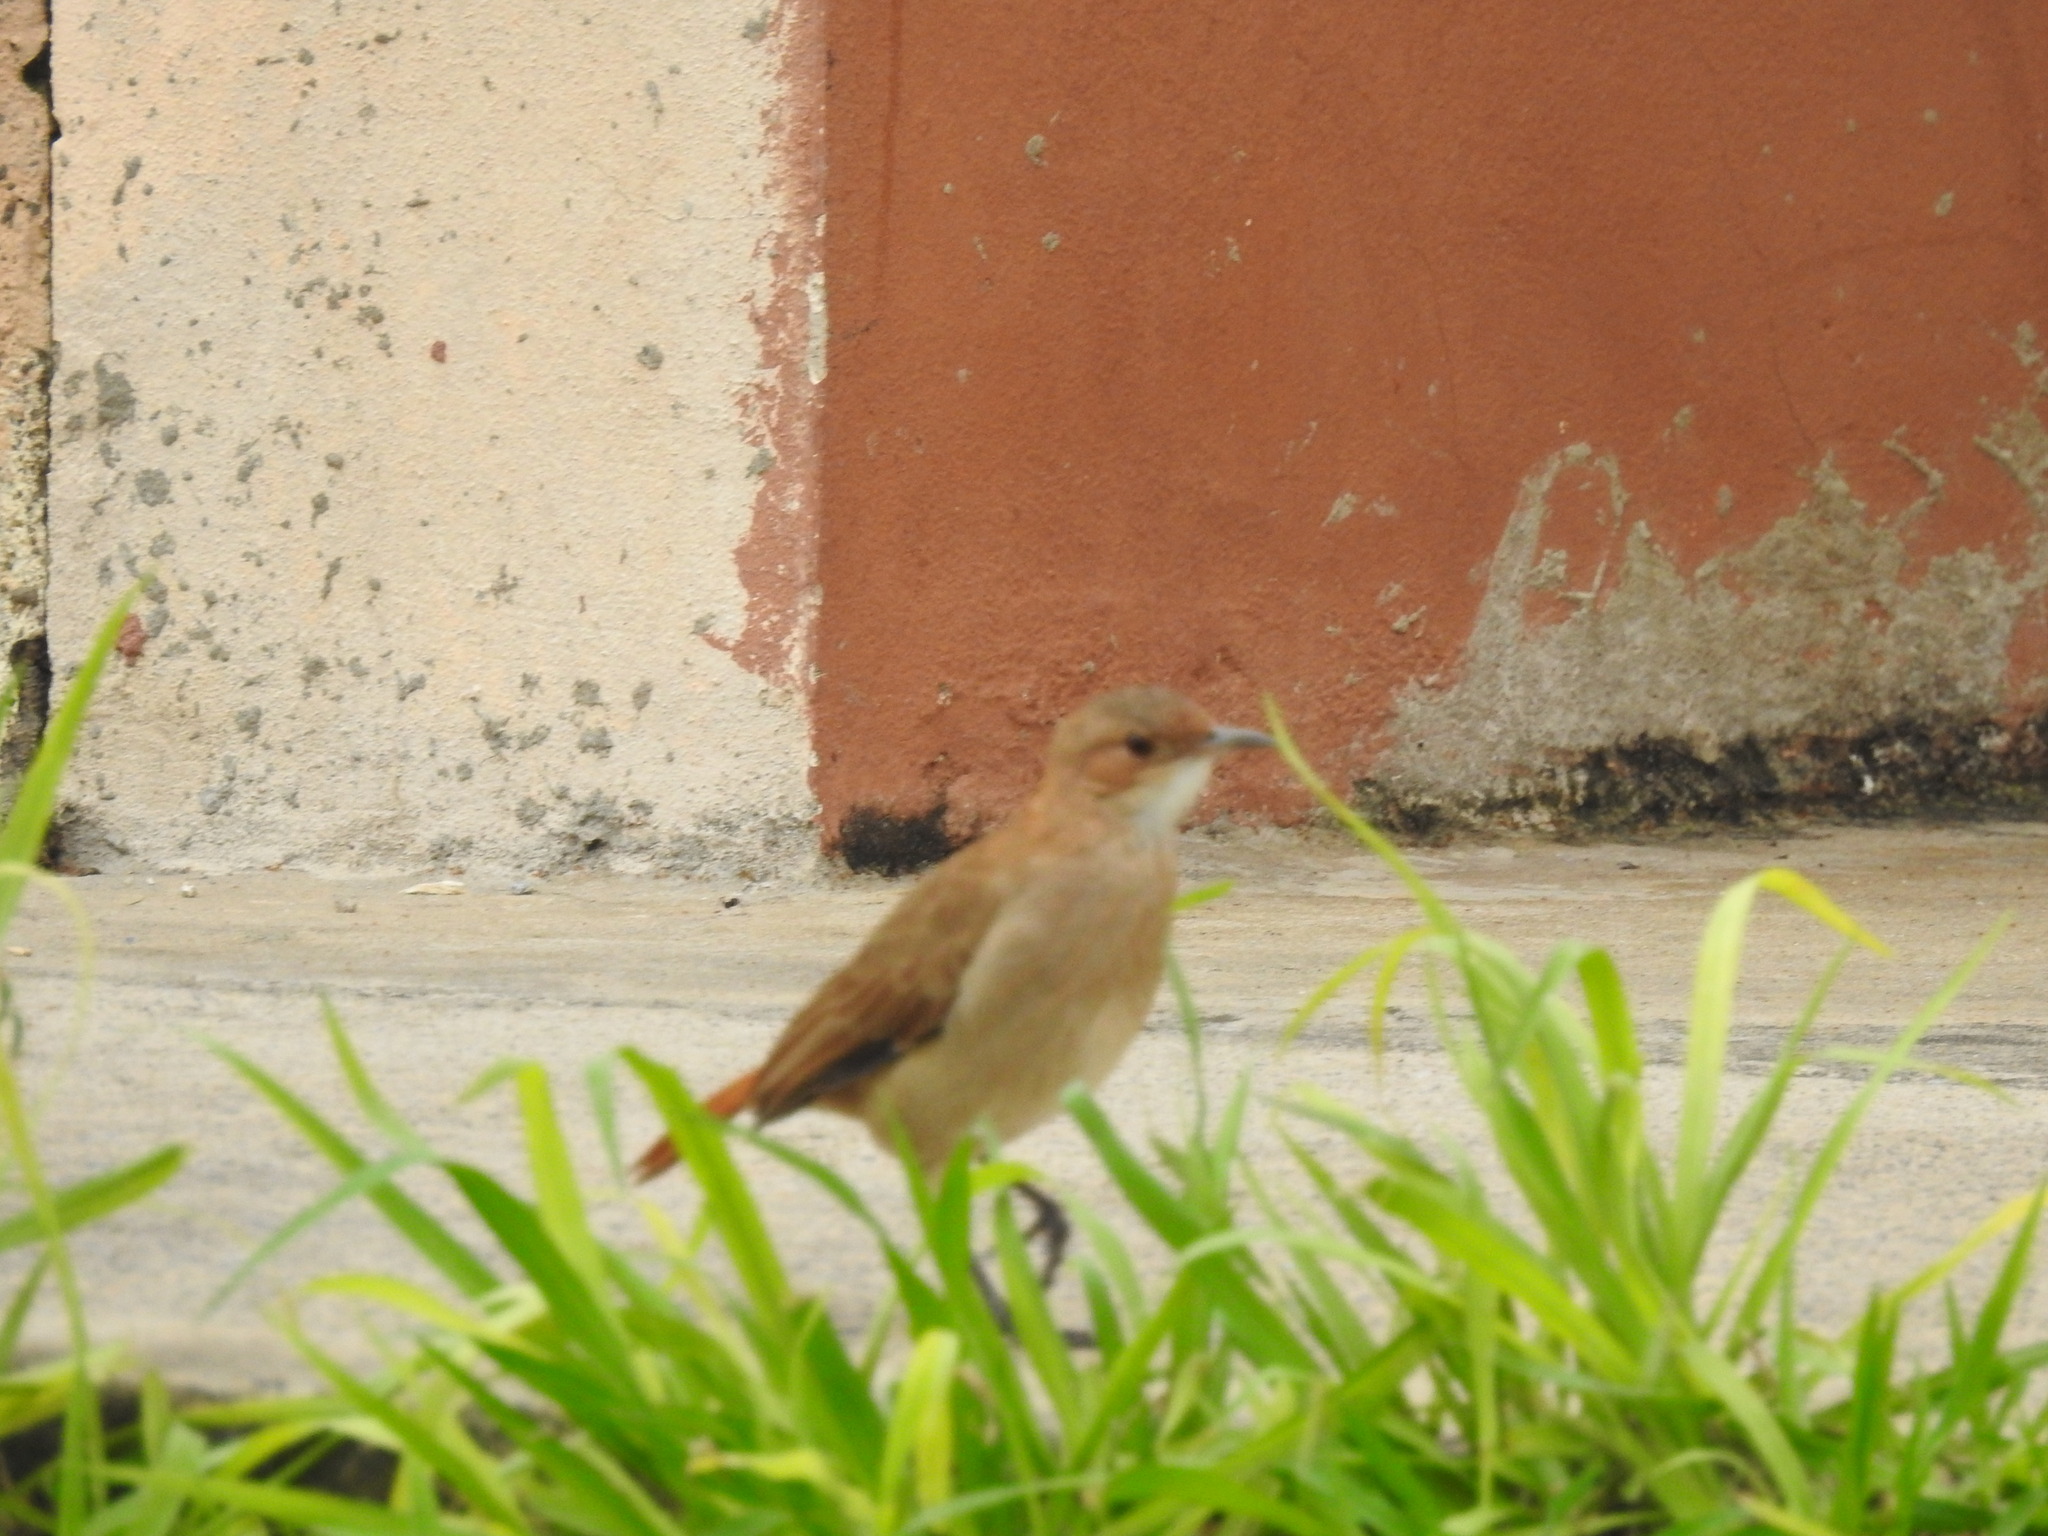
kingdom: Animalia
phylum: Chordata
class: Aves
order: Passeriformes
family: Furnariidae
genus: Furnarius
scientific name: Furnarius rufus
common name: Rufous hornero
